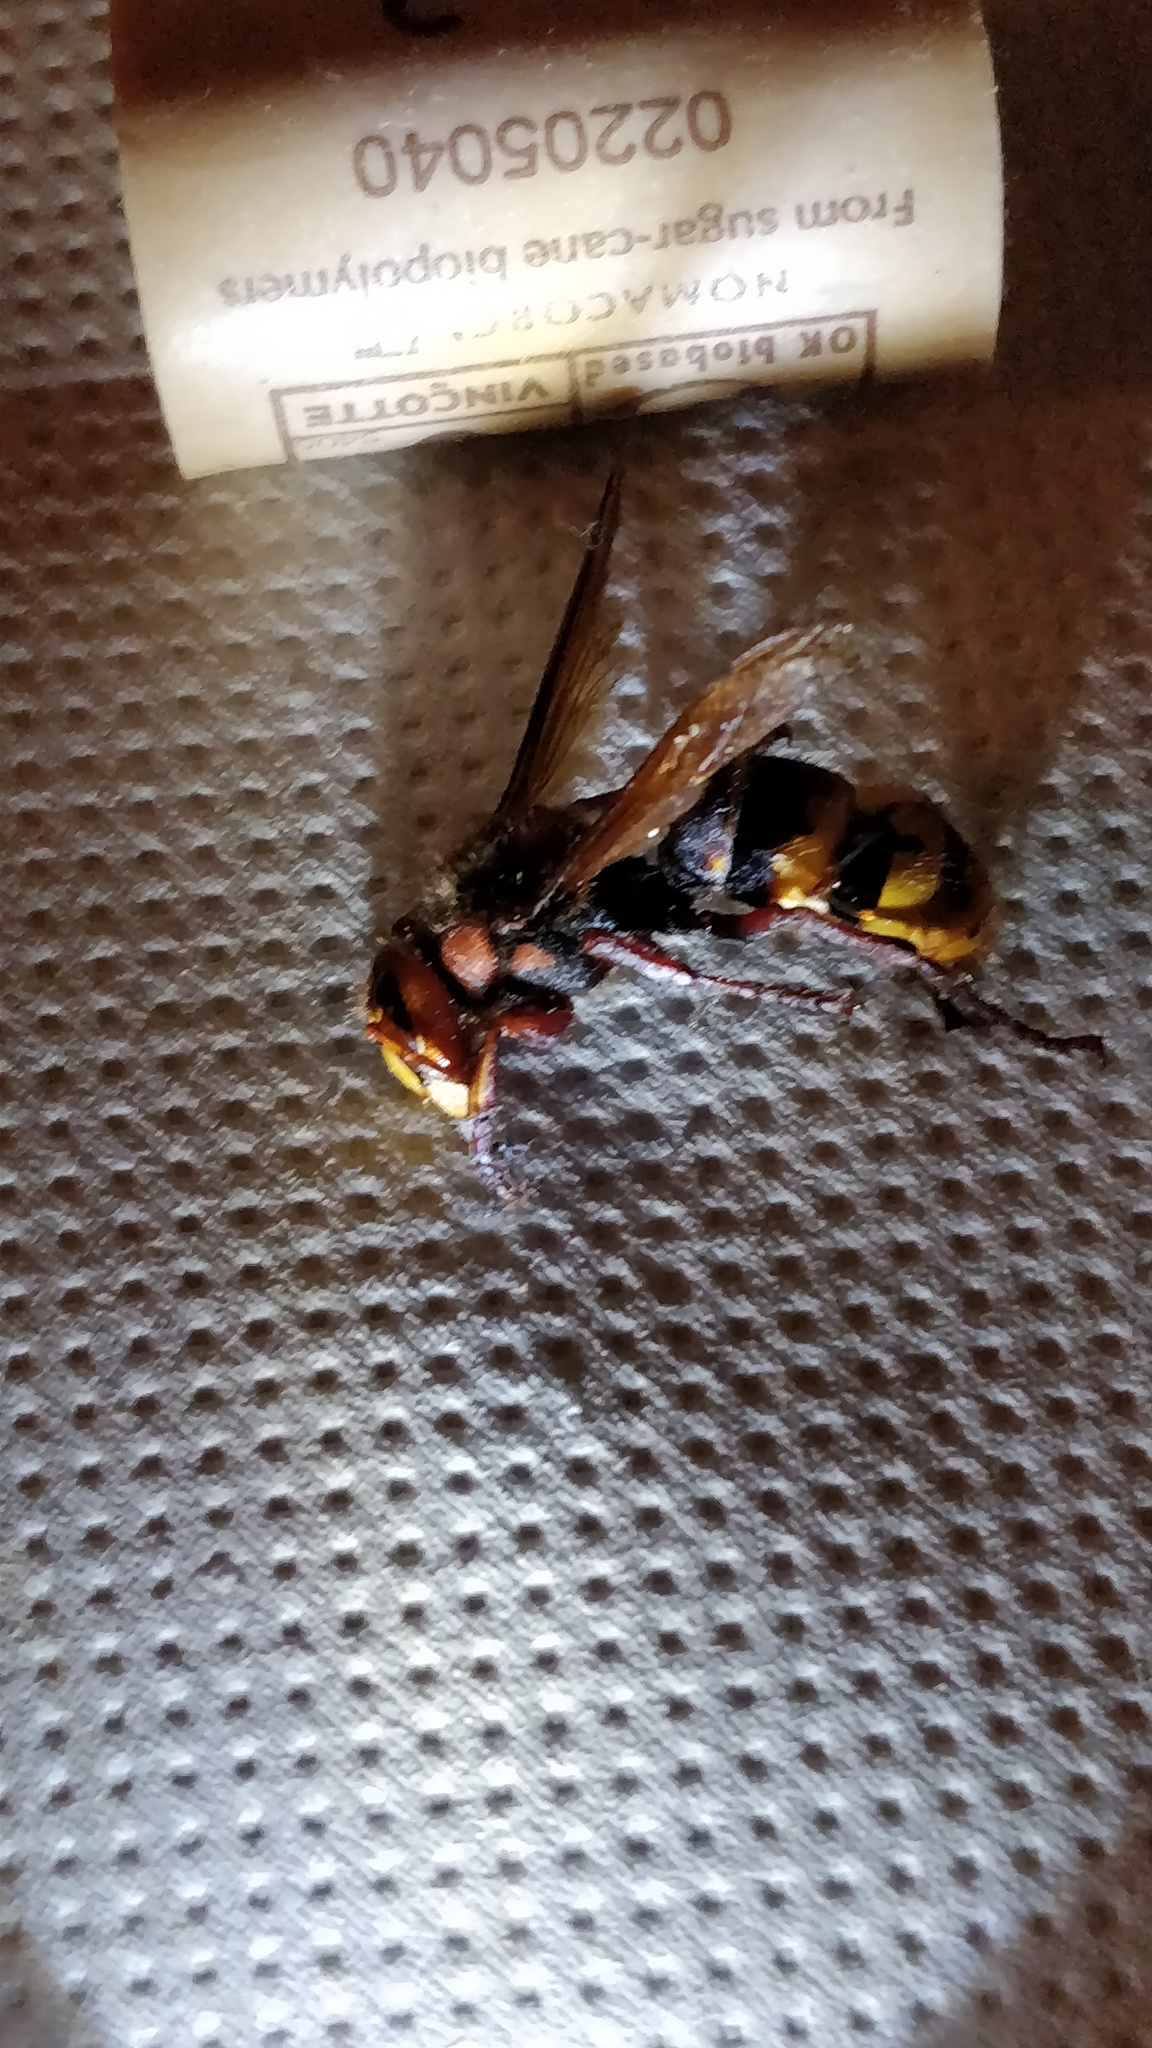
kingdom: Animalia
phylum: Arthropoda
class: Insecta
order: Hymenoptera
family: Vespidae
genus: Vespa
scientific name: Vespa crabro
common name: Hornet
